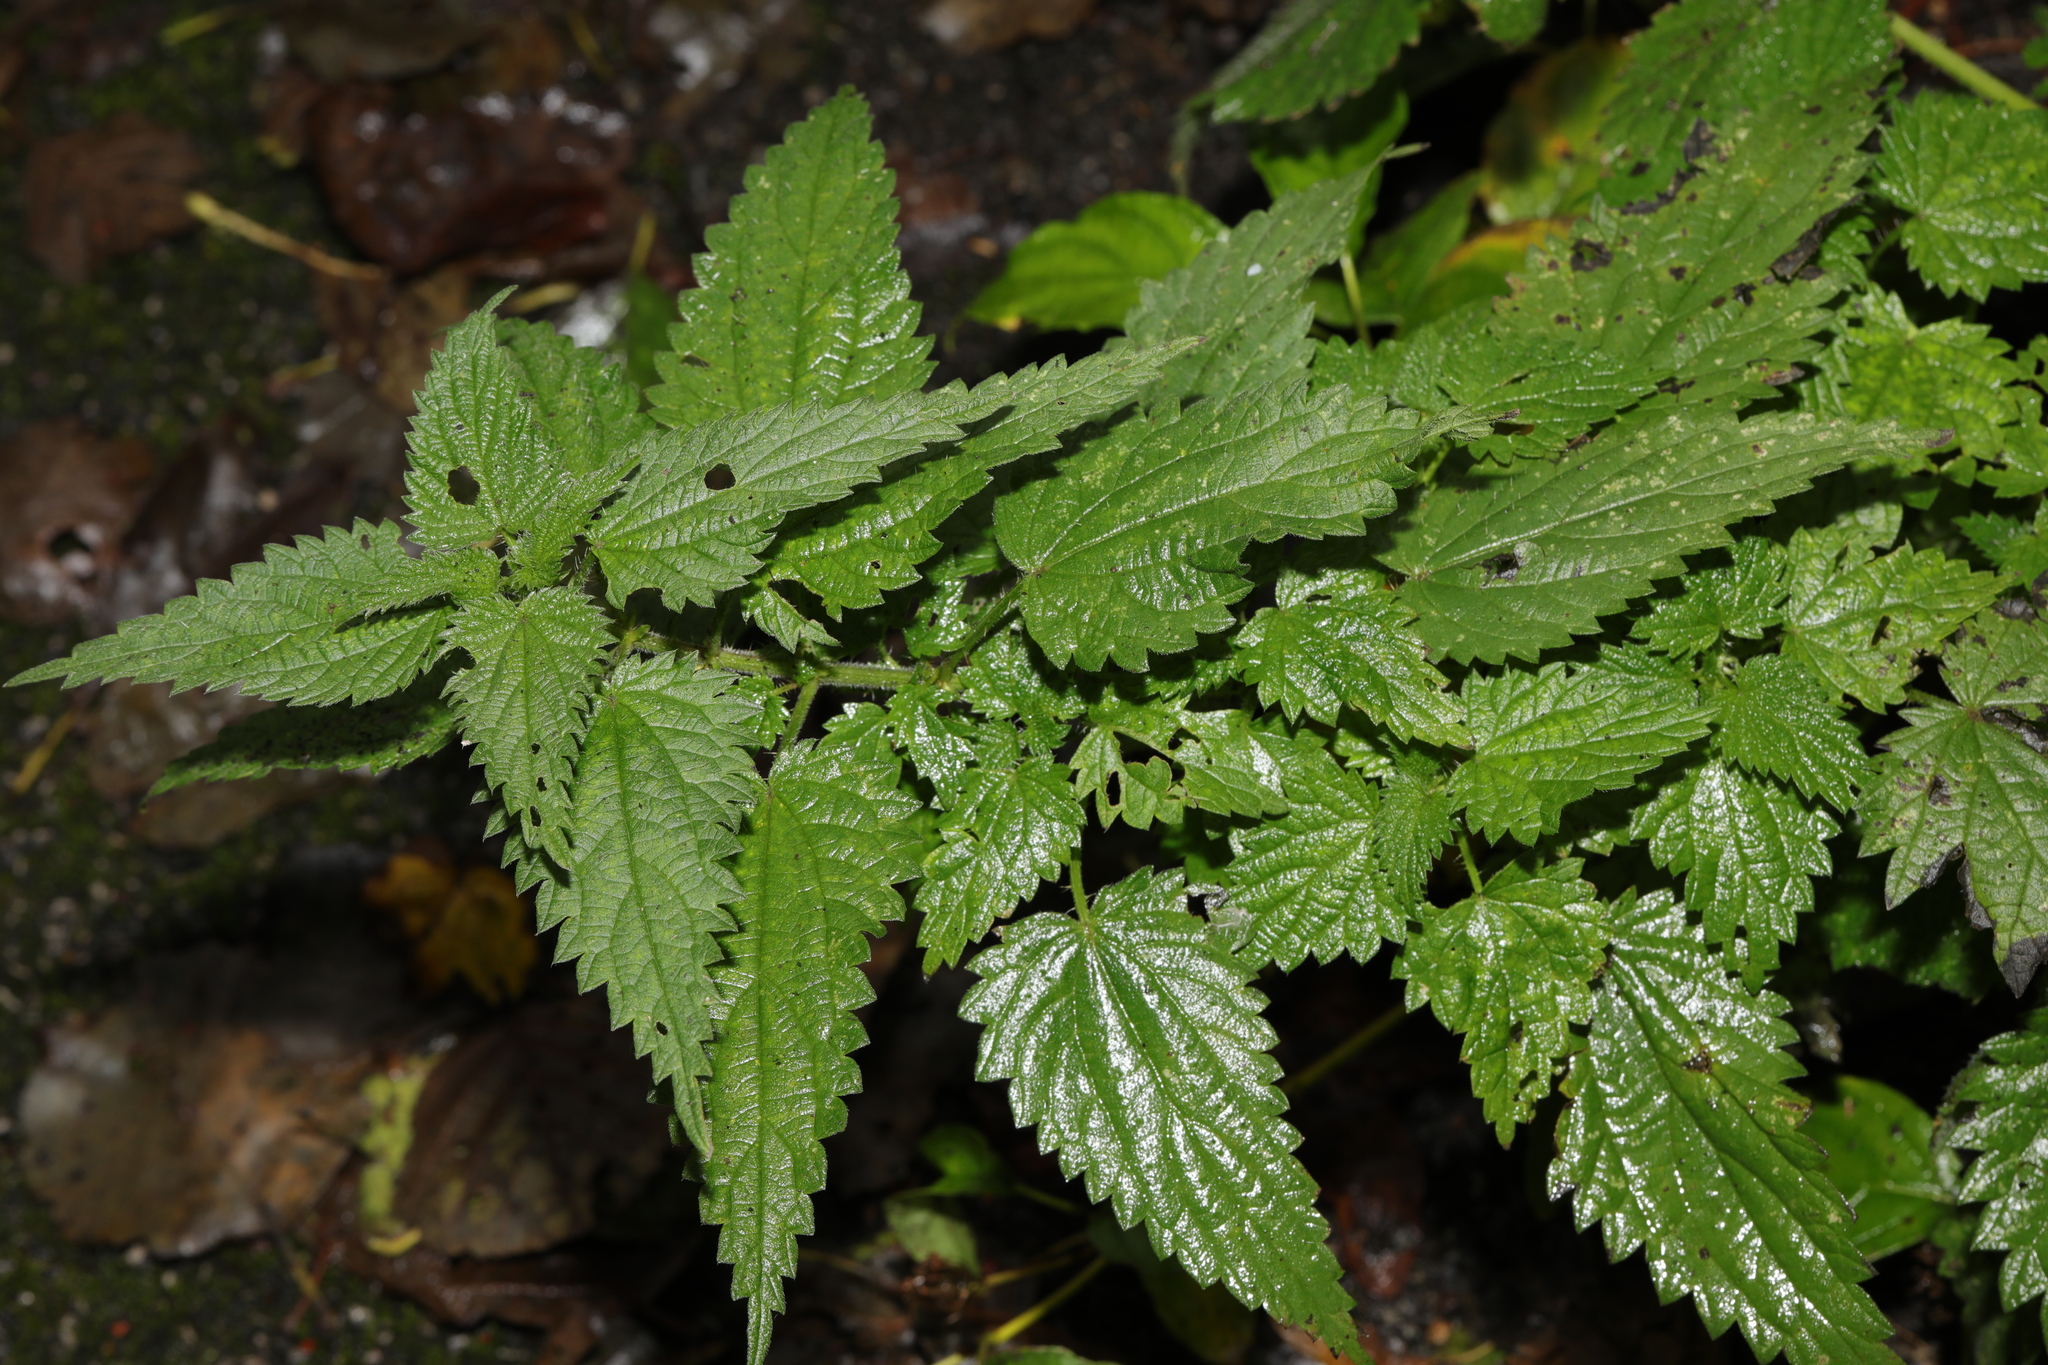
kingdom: Plantae
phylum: Tracheophyta
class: Magnoliopsida
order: Rosales
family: Urticaceae
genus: Urtica
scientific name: Urtica dioica
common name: Common nettle
